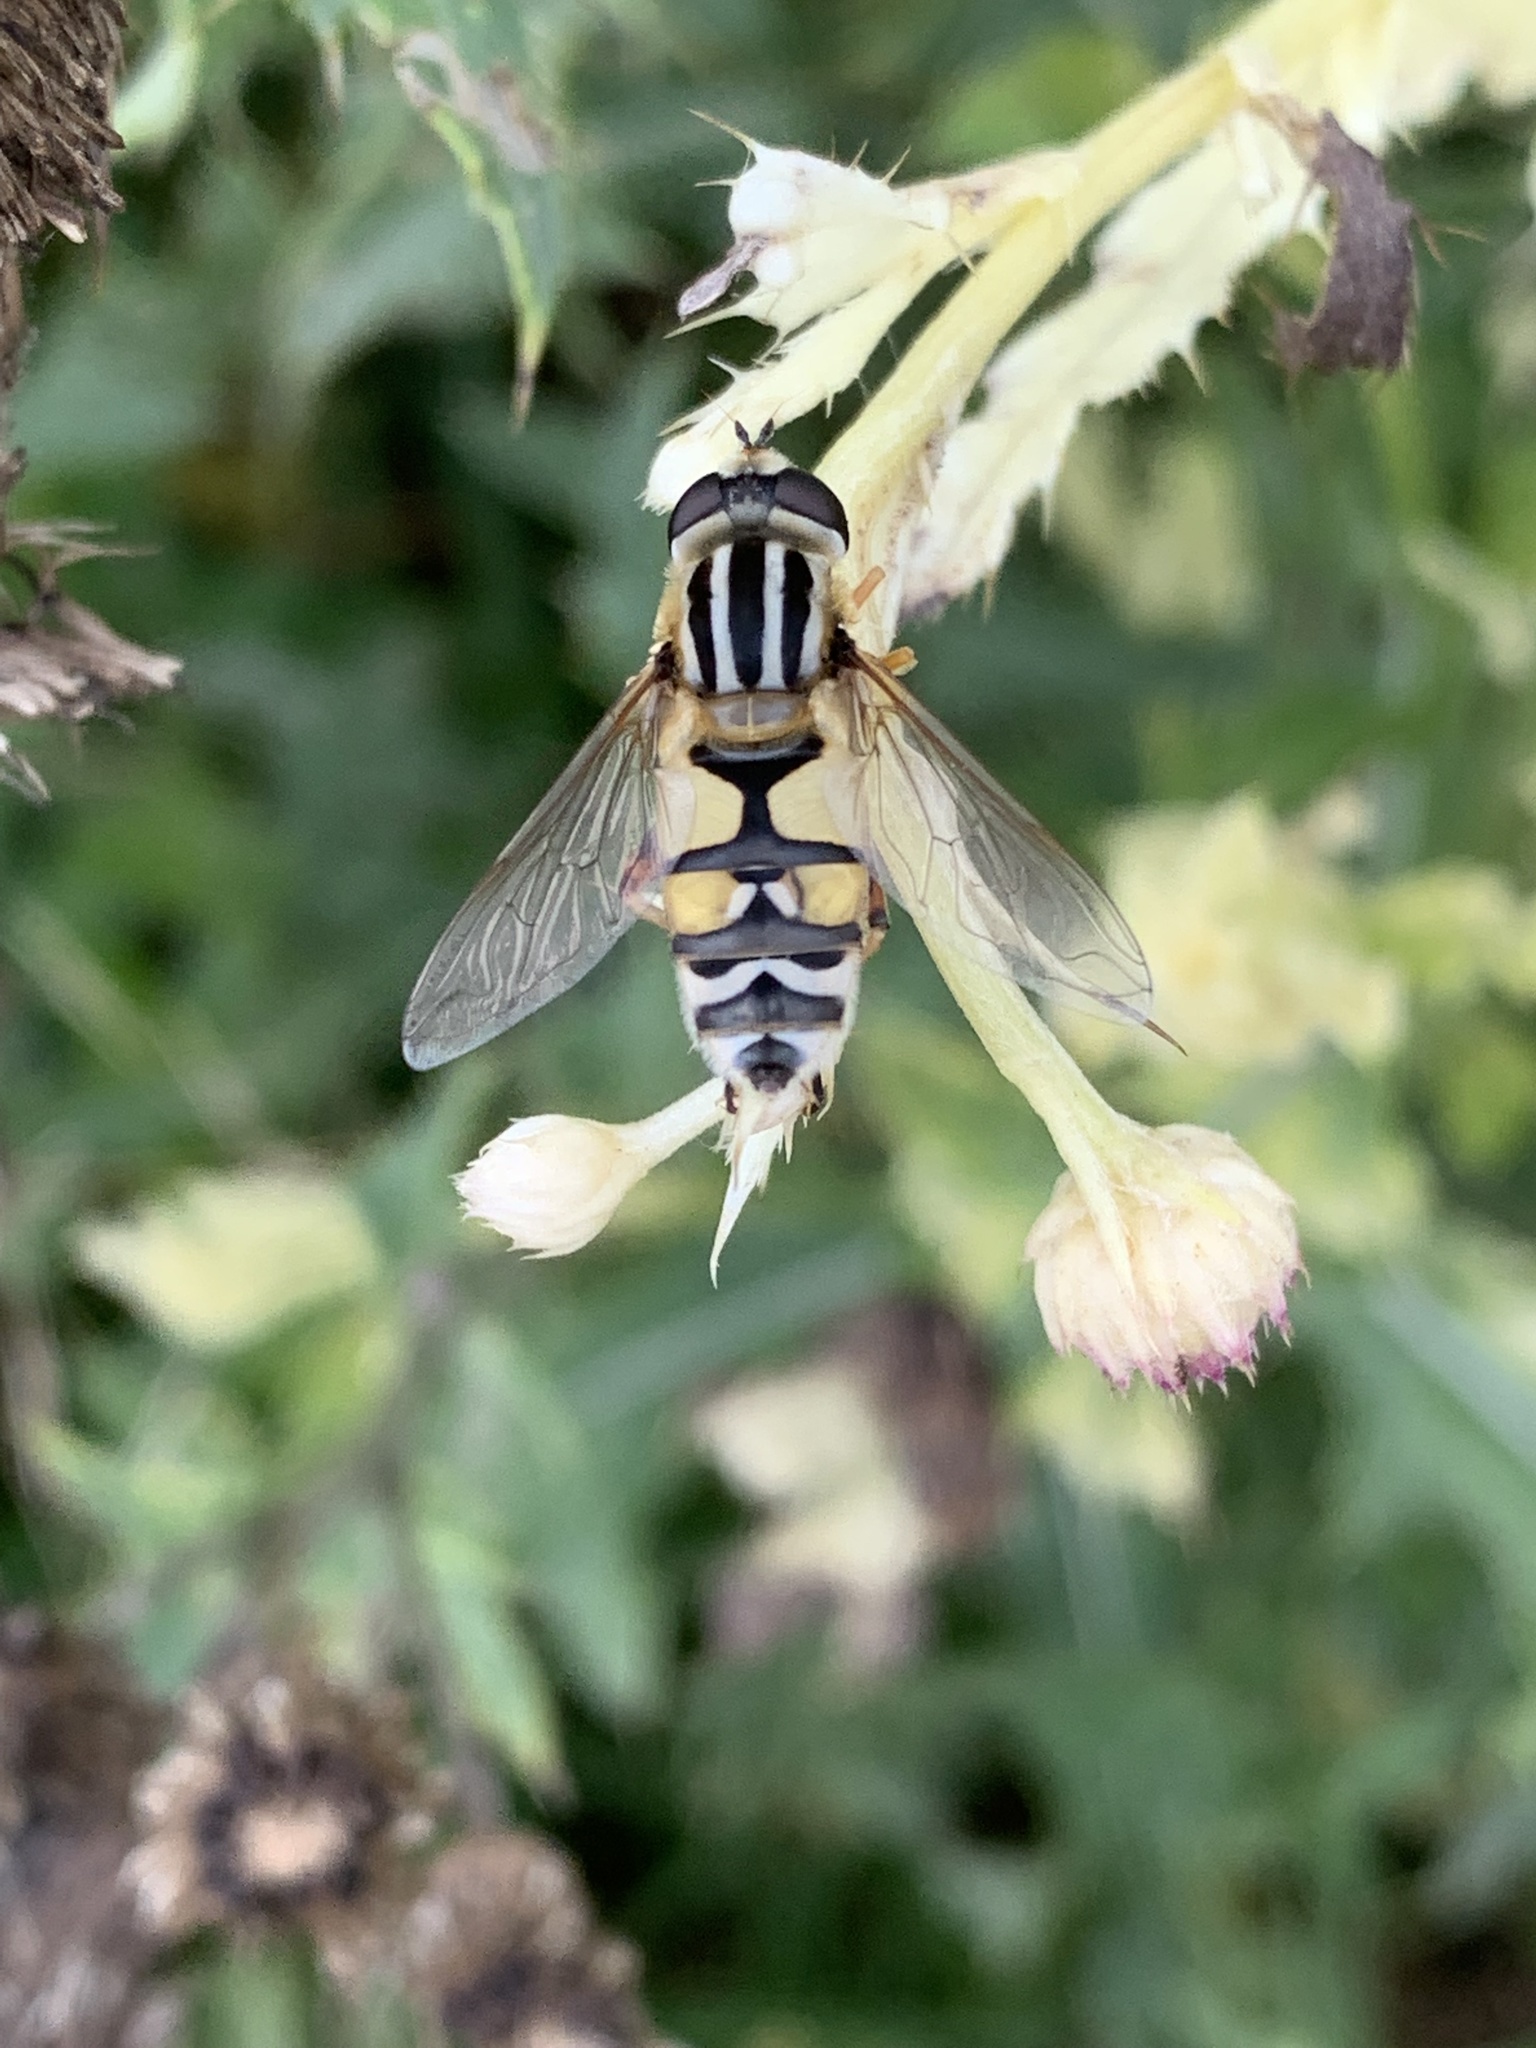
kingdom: Animalia
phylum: Arthropoda
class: Insecta
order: Diptera
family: Syrphidae
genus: Helophilus
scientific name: Helophilus trivittatus
